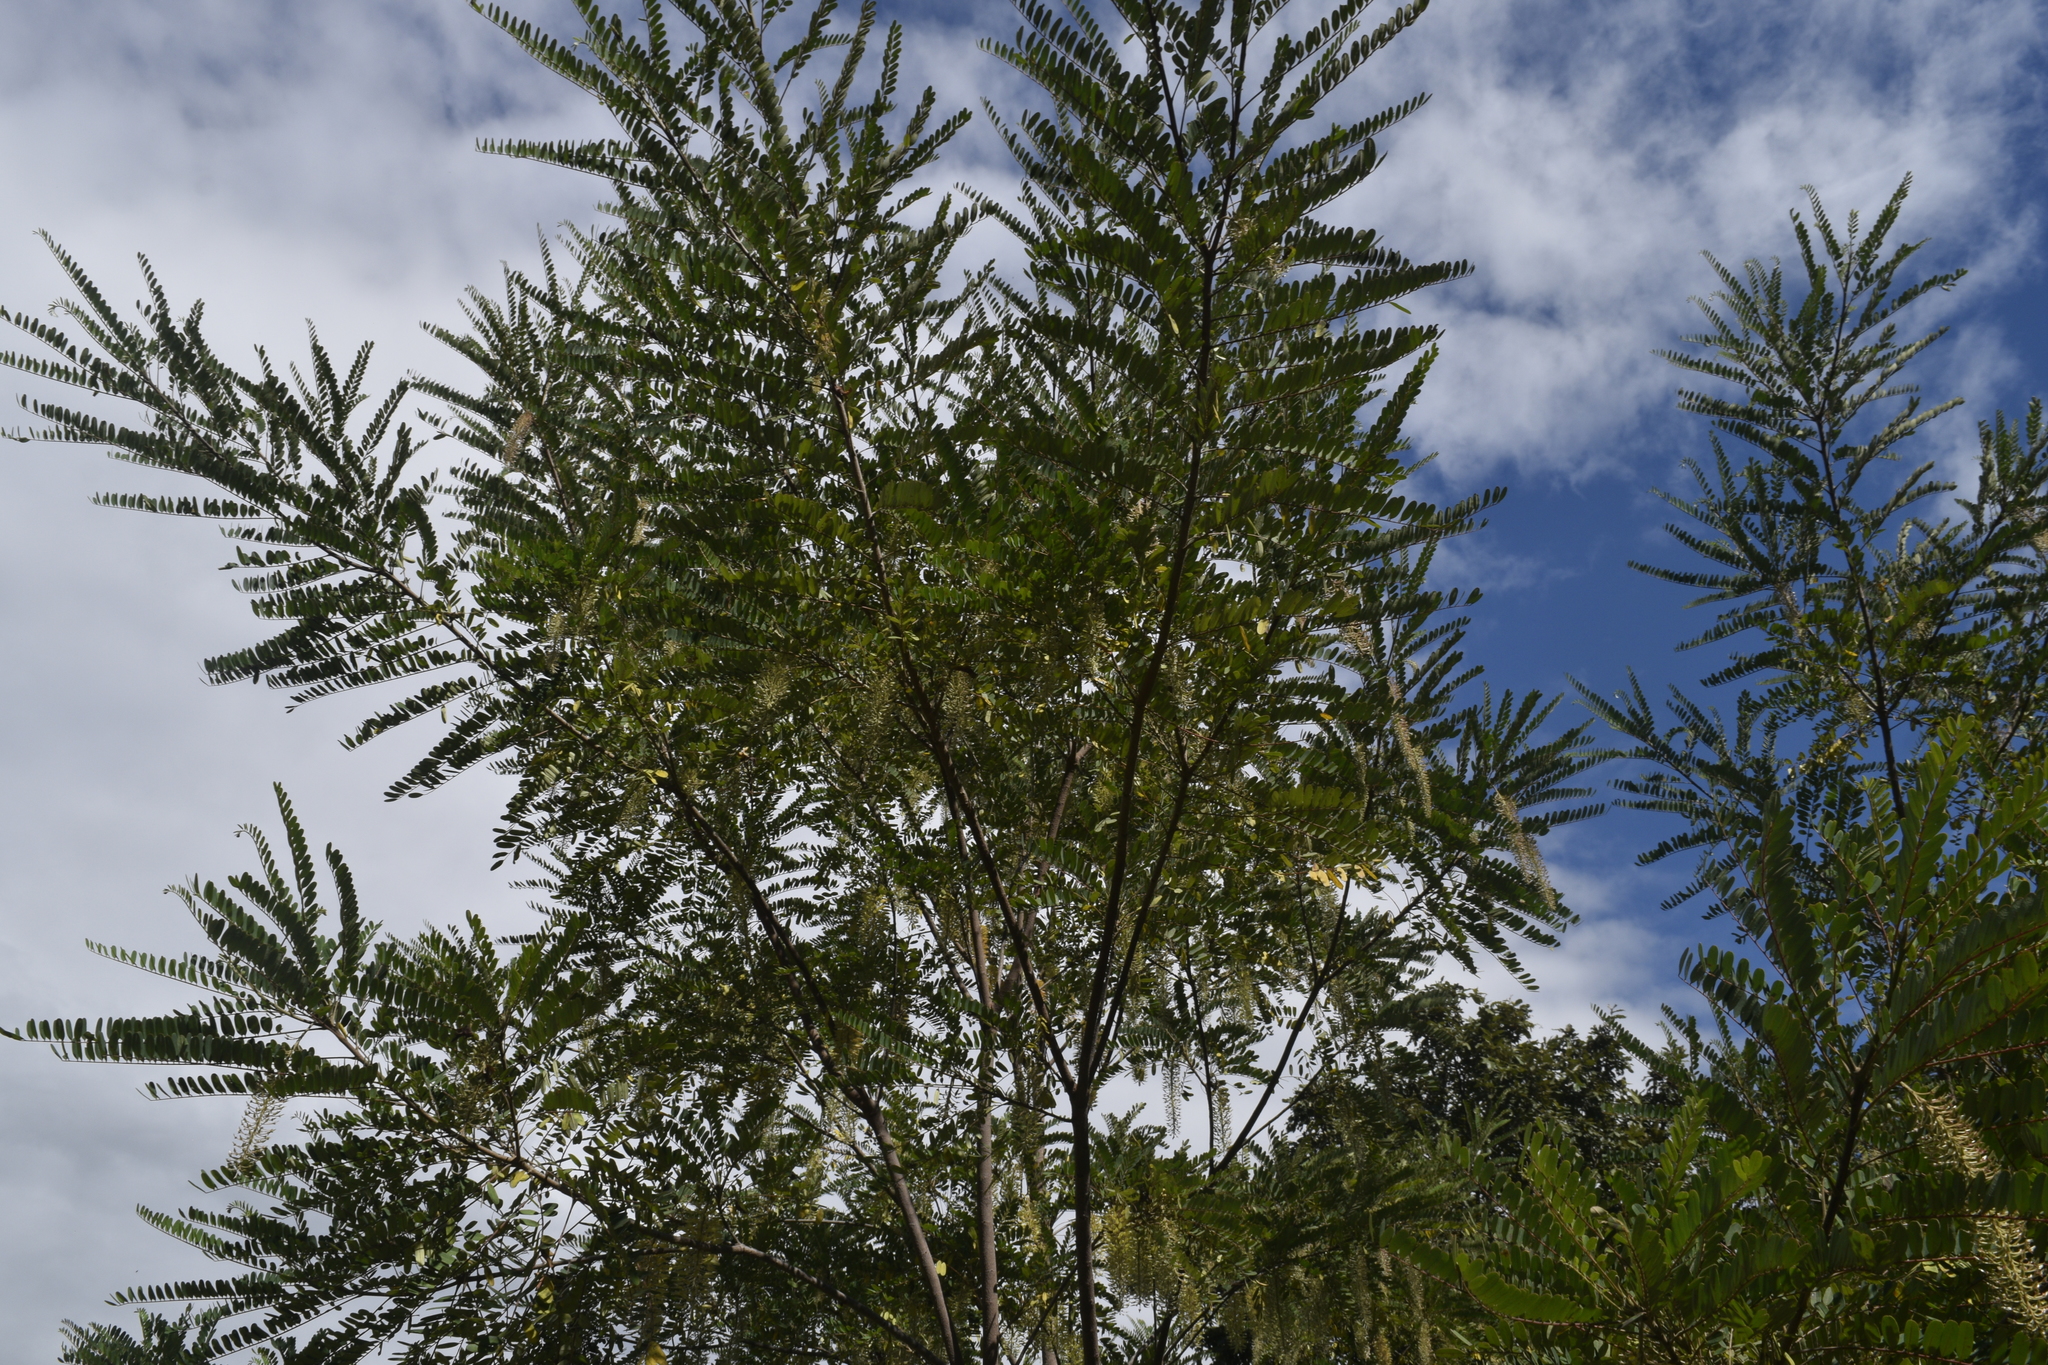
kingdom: Plantae
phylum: Tracheophyta
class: Magnoliopsida
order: Picramniales
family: Picramniaceae
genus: Alvaradoa
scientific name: Alvaradoa amorphoides
